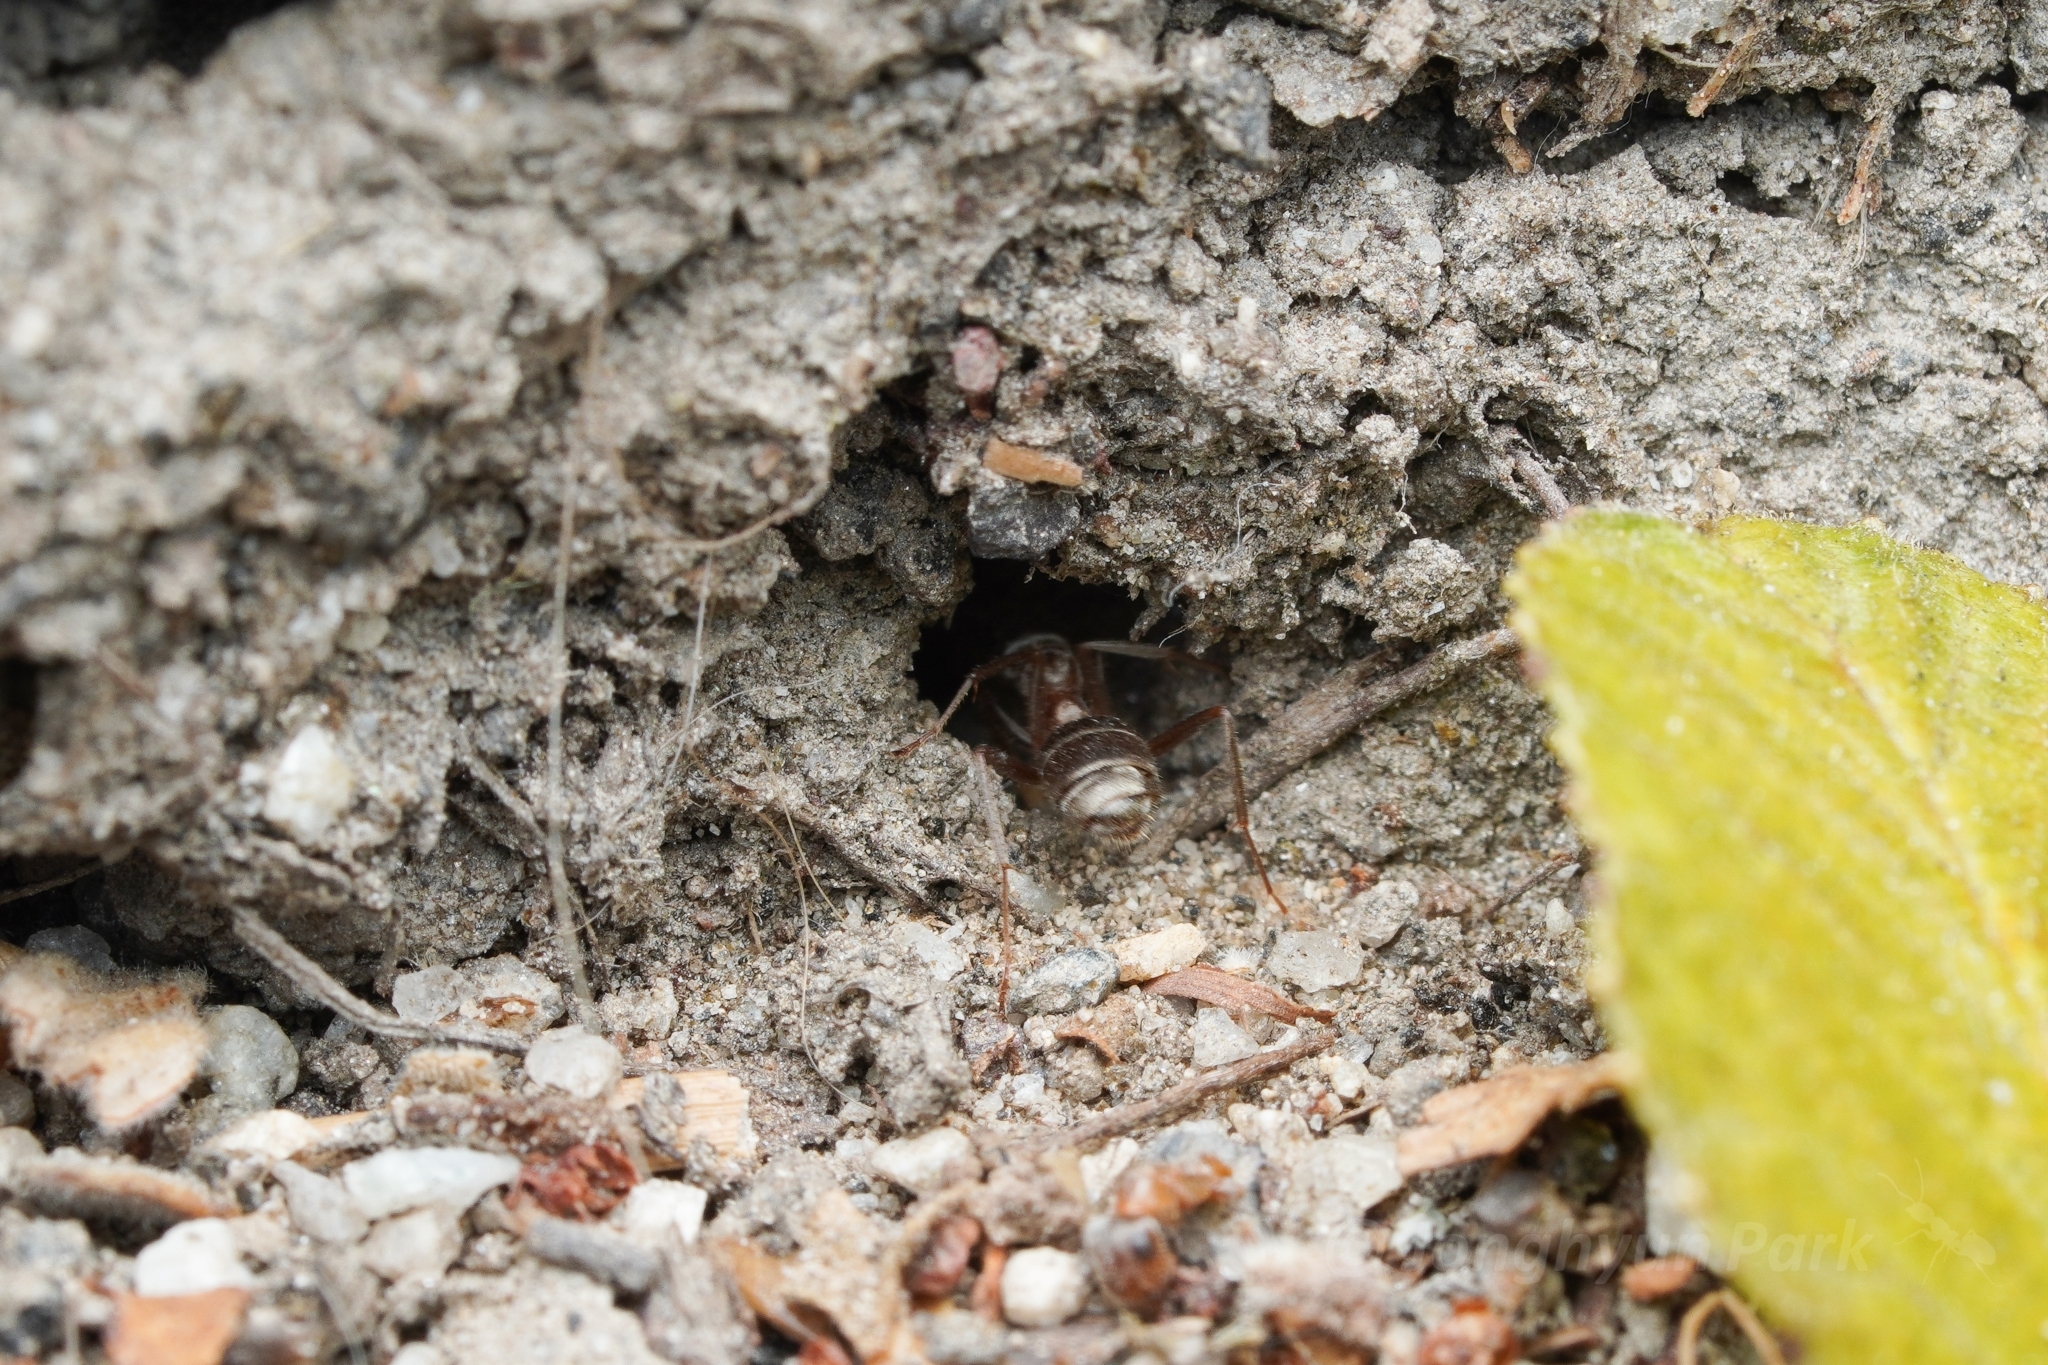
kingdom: Animalia
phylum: Arthropoda
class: Insecta
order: Hymenoptera
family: Formicidae
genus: Formica
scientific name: Formica francoeuri
